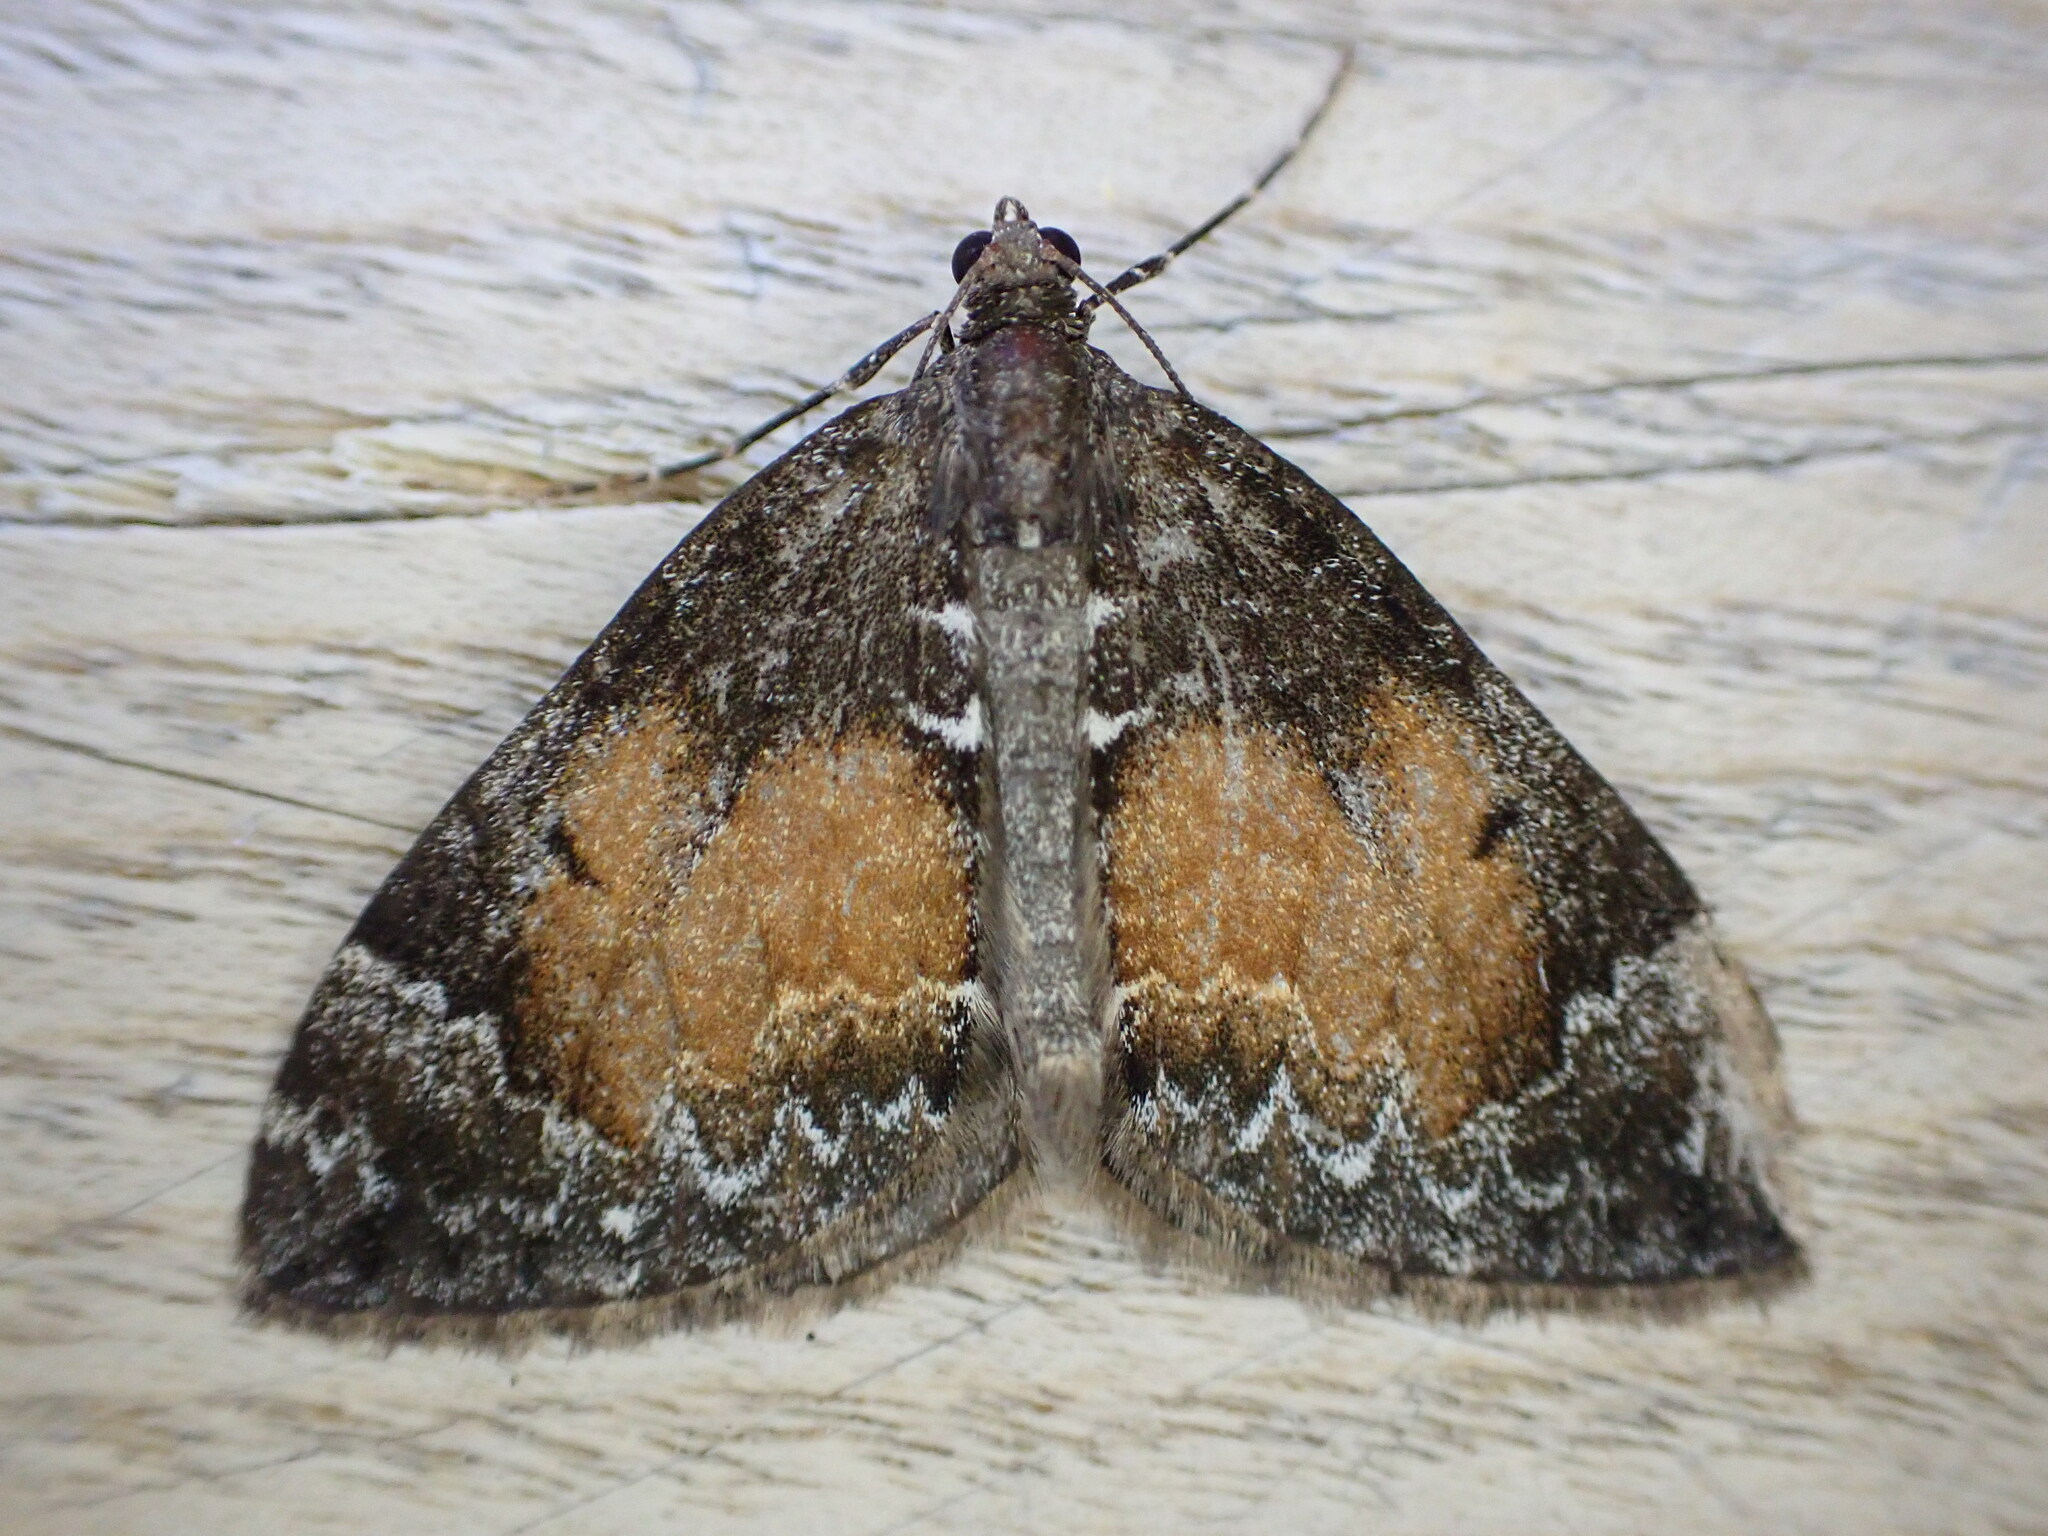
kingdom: Animalia
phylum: Arthropoda
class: Insecta
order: Lepidoptera
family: Geometridae
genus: Dysstroma
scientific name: Dysstroma truncata
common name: Common marbled carpet
